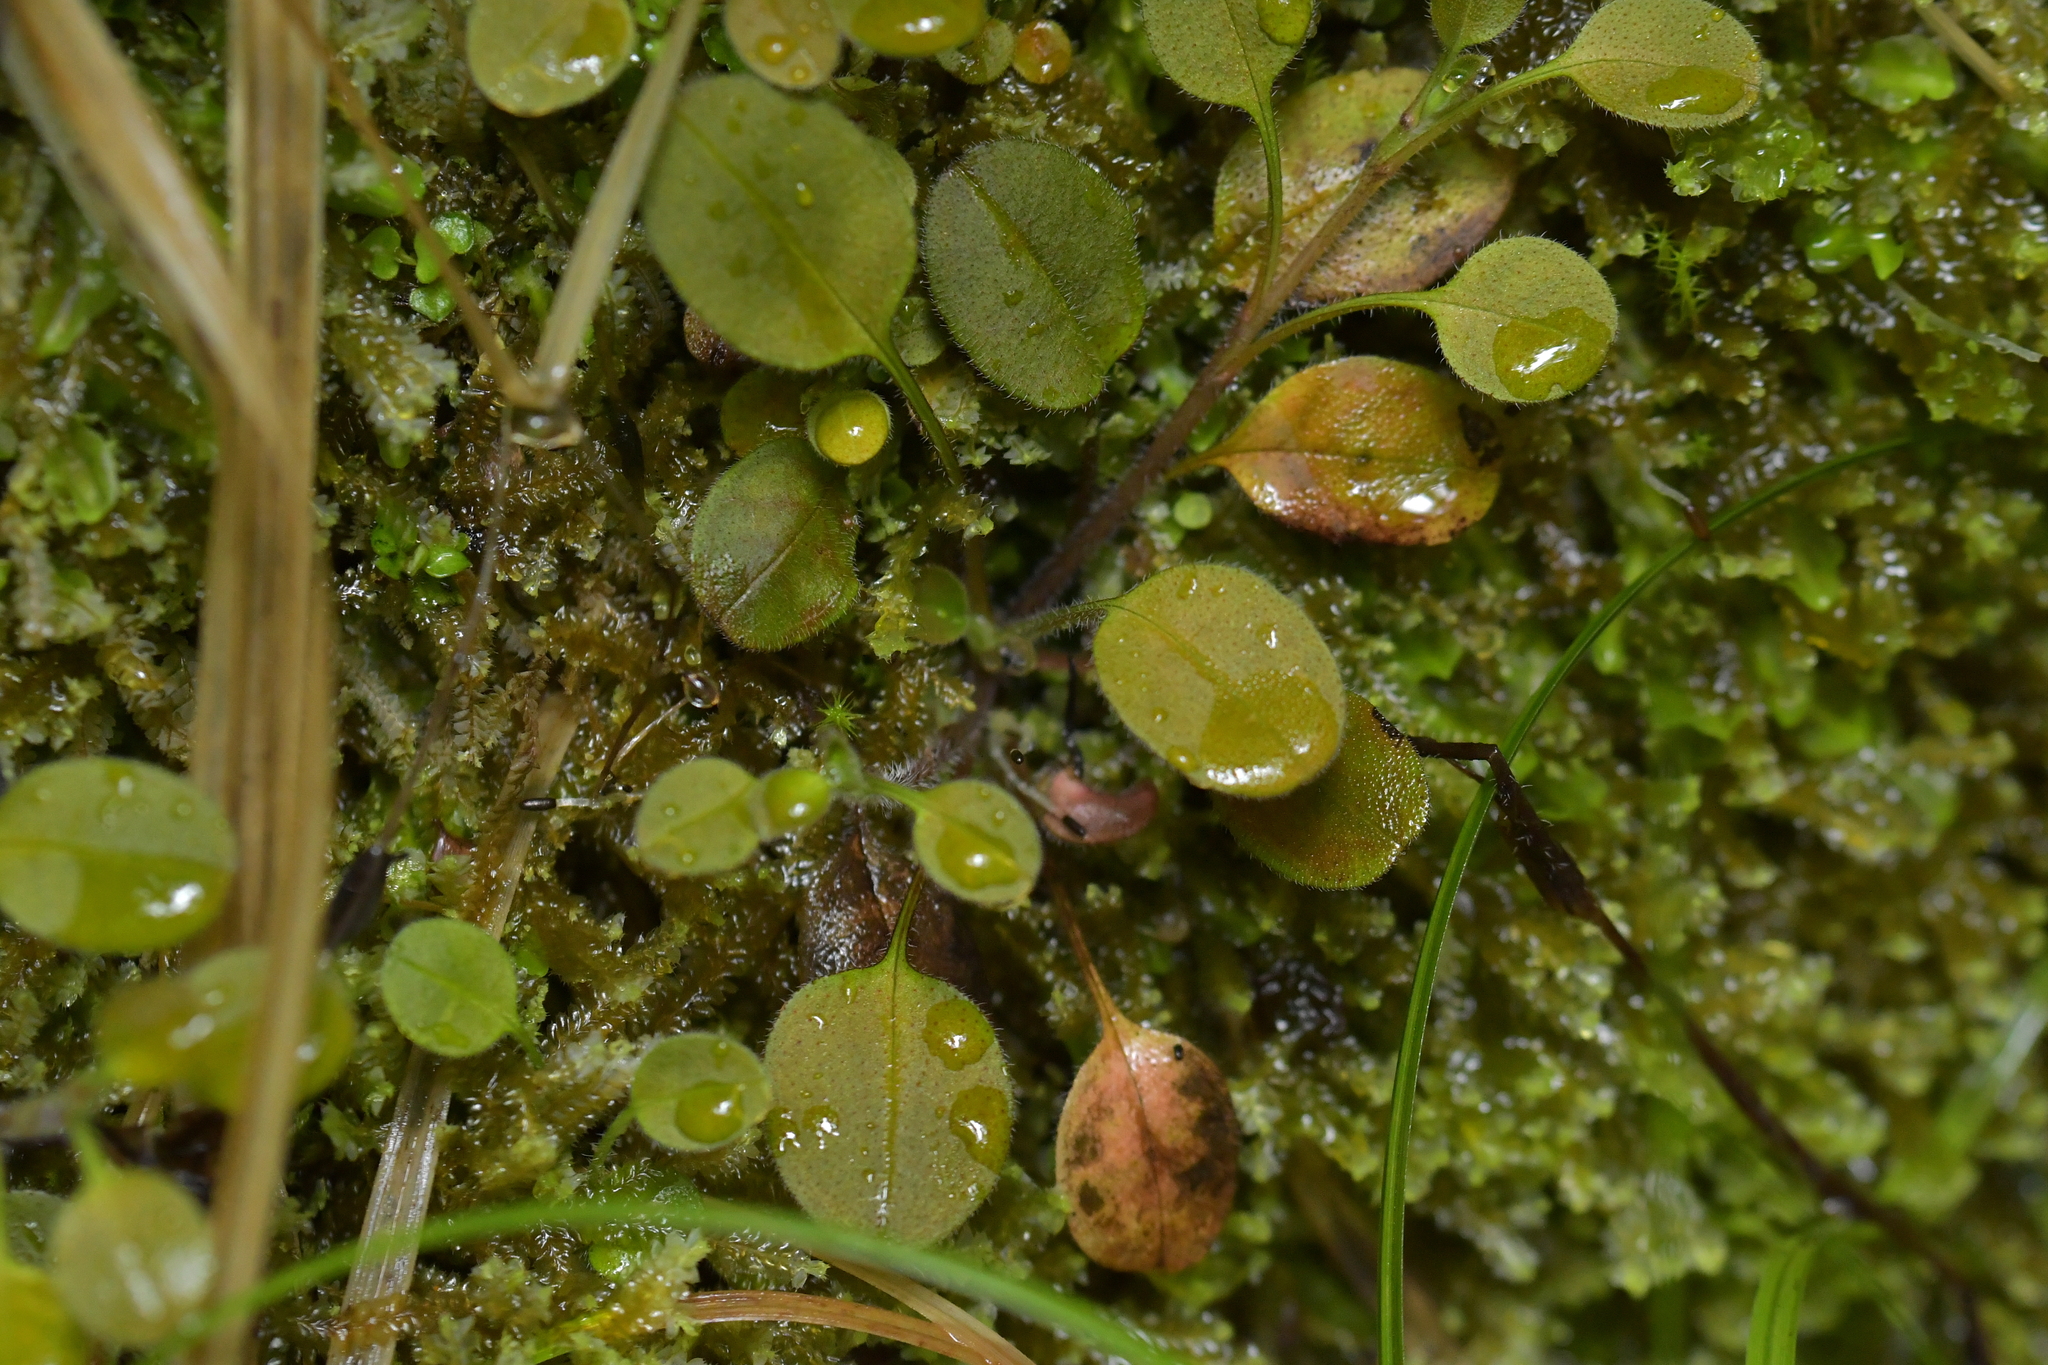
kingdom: Plantae
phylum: Tracheophyta
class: Magnoliopsida
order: Boraginales
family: Boraginaceae
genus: Myosotis
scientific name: Myosotis forsteri
